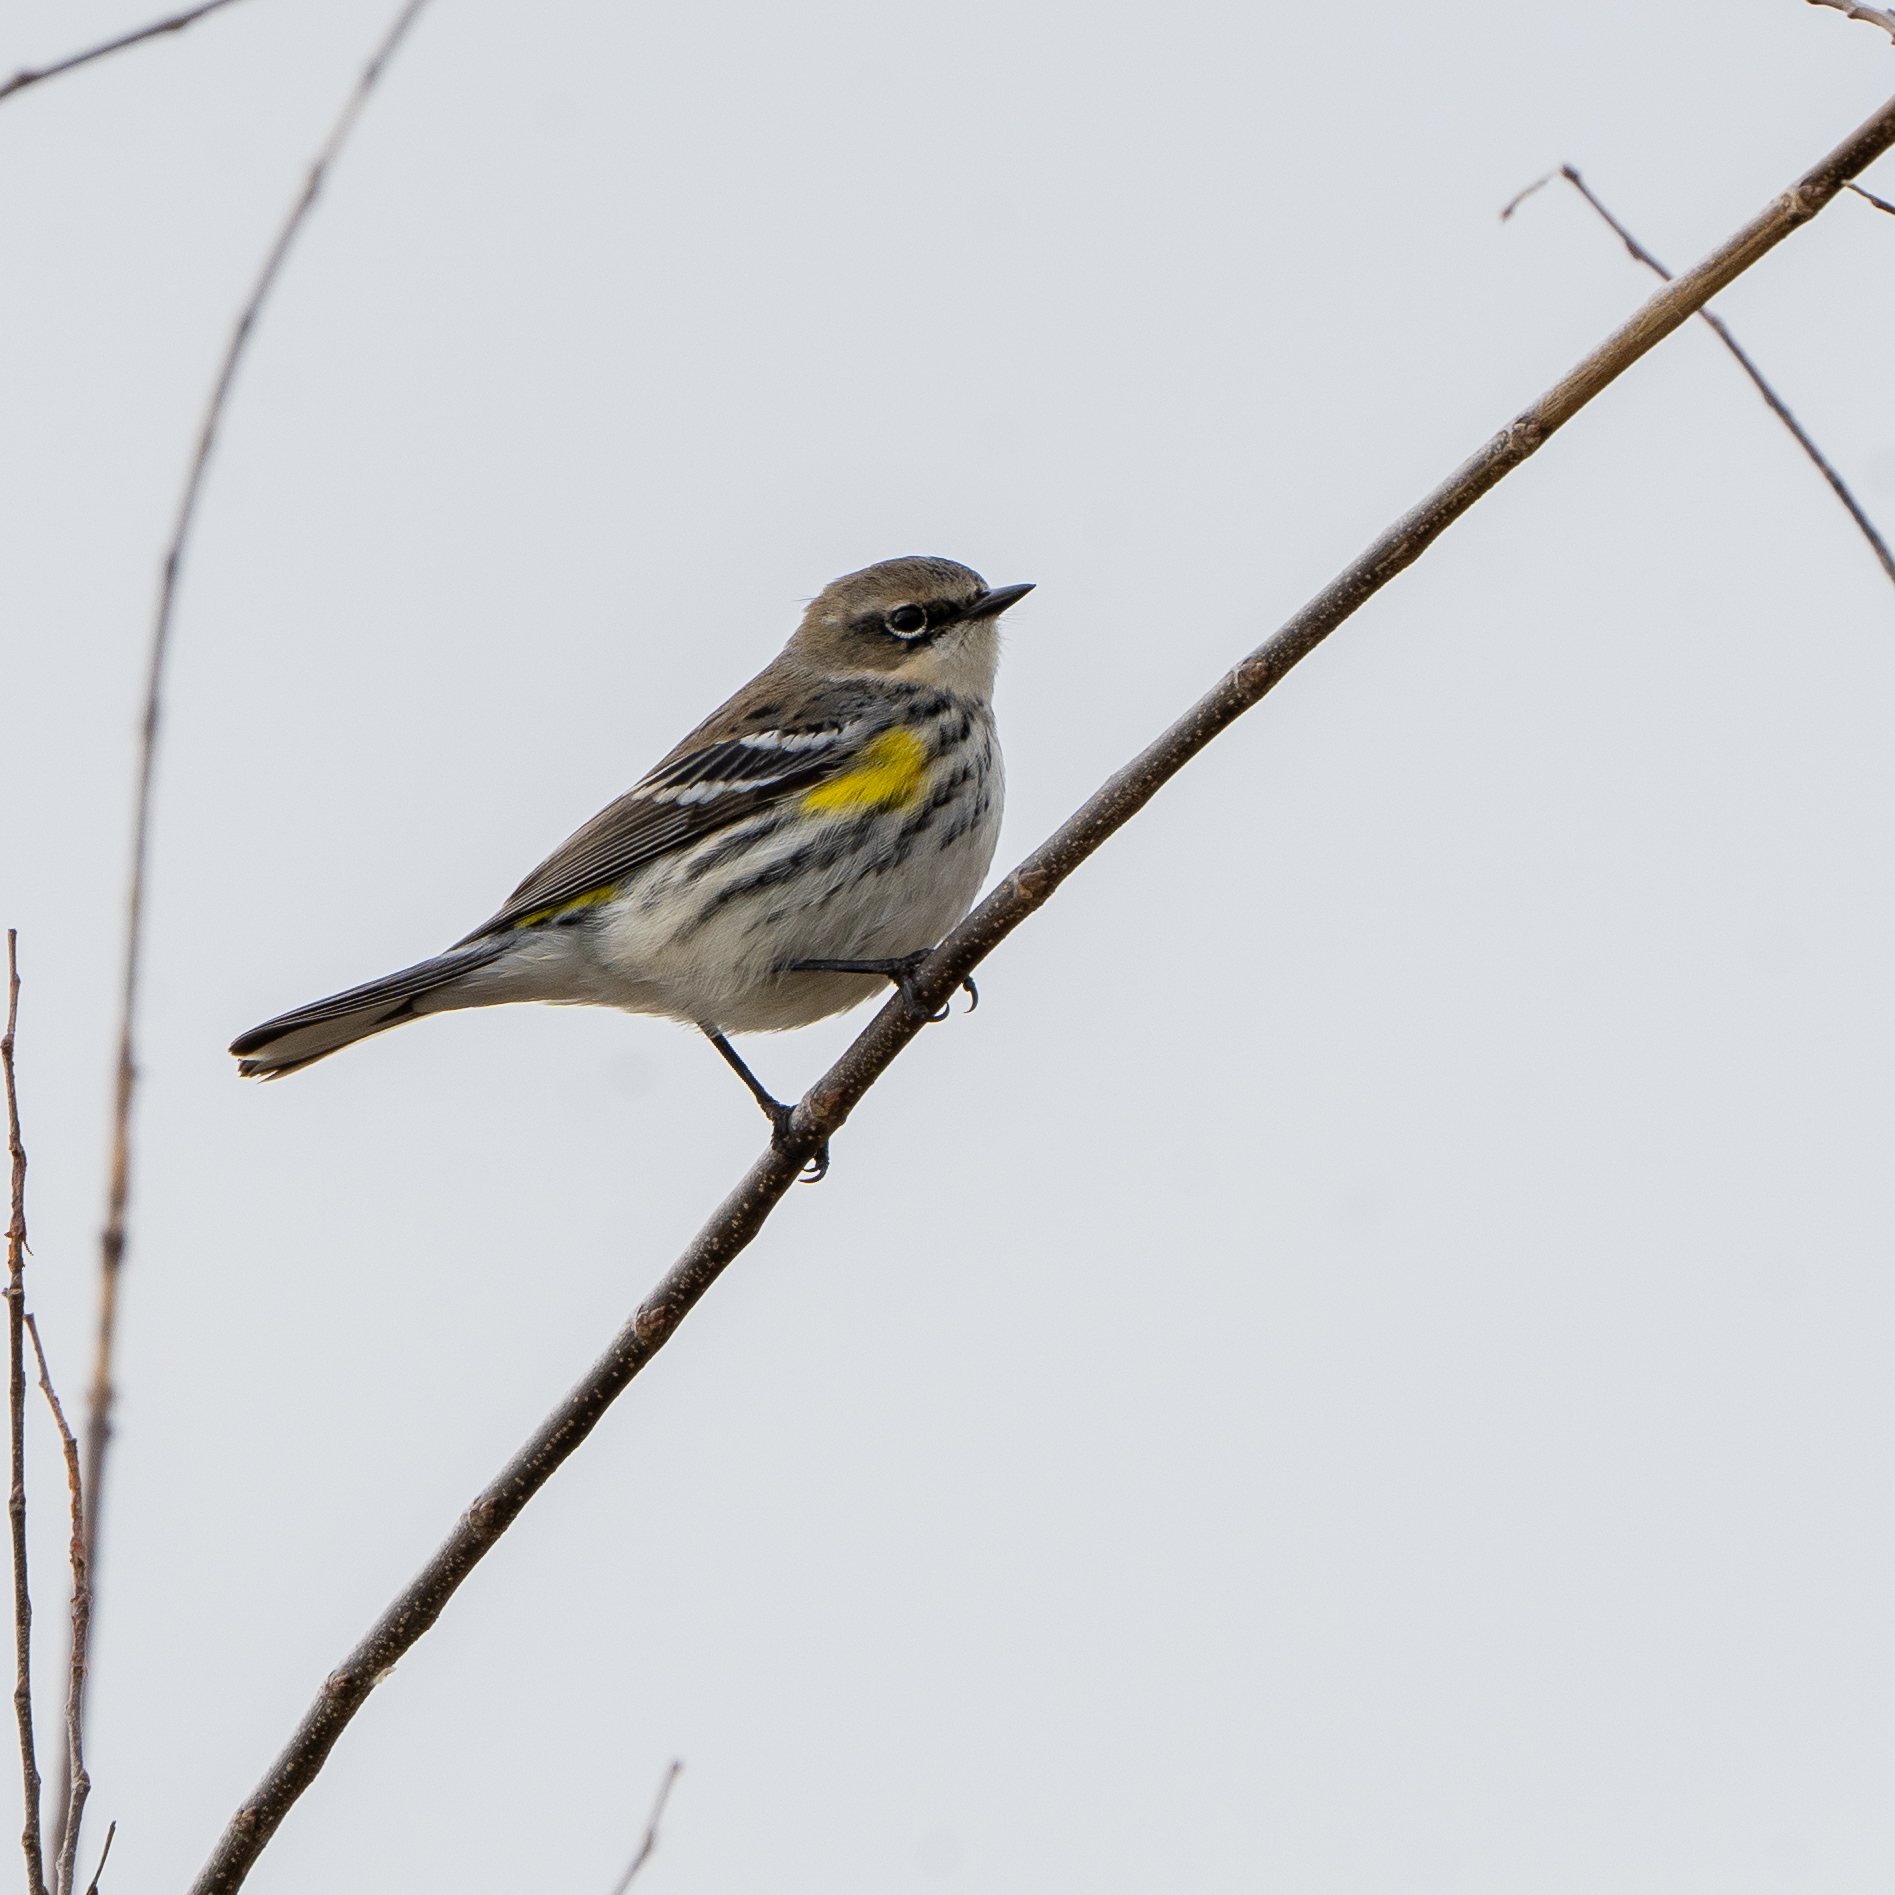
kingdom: Animalia
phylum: Chordata
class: Aves
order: Passeriformes
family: Parulidae
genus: Setophaga
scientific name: Setophaga coronata
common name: Myrtle warbler
